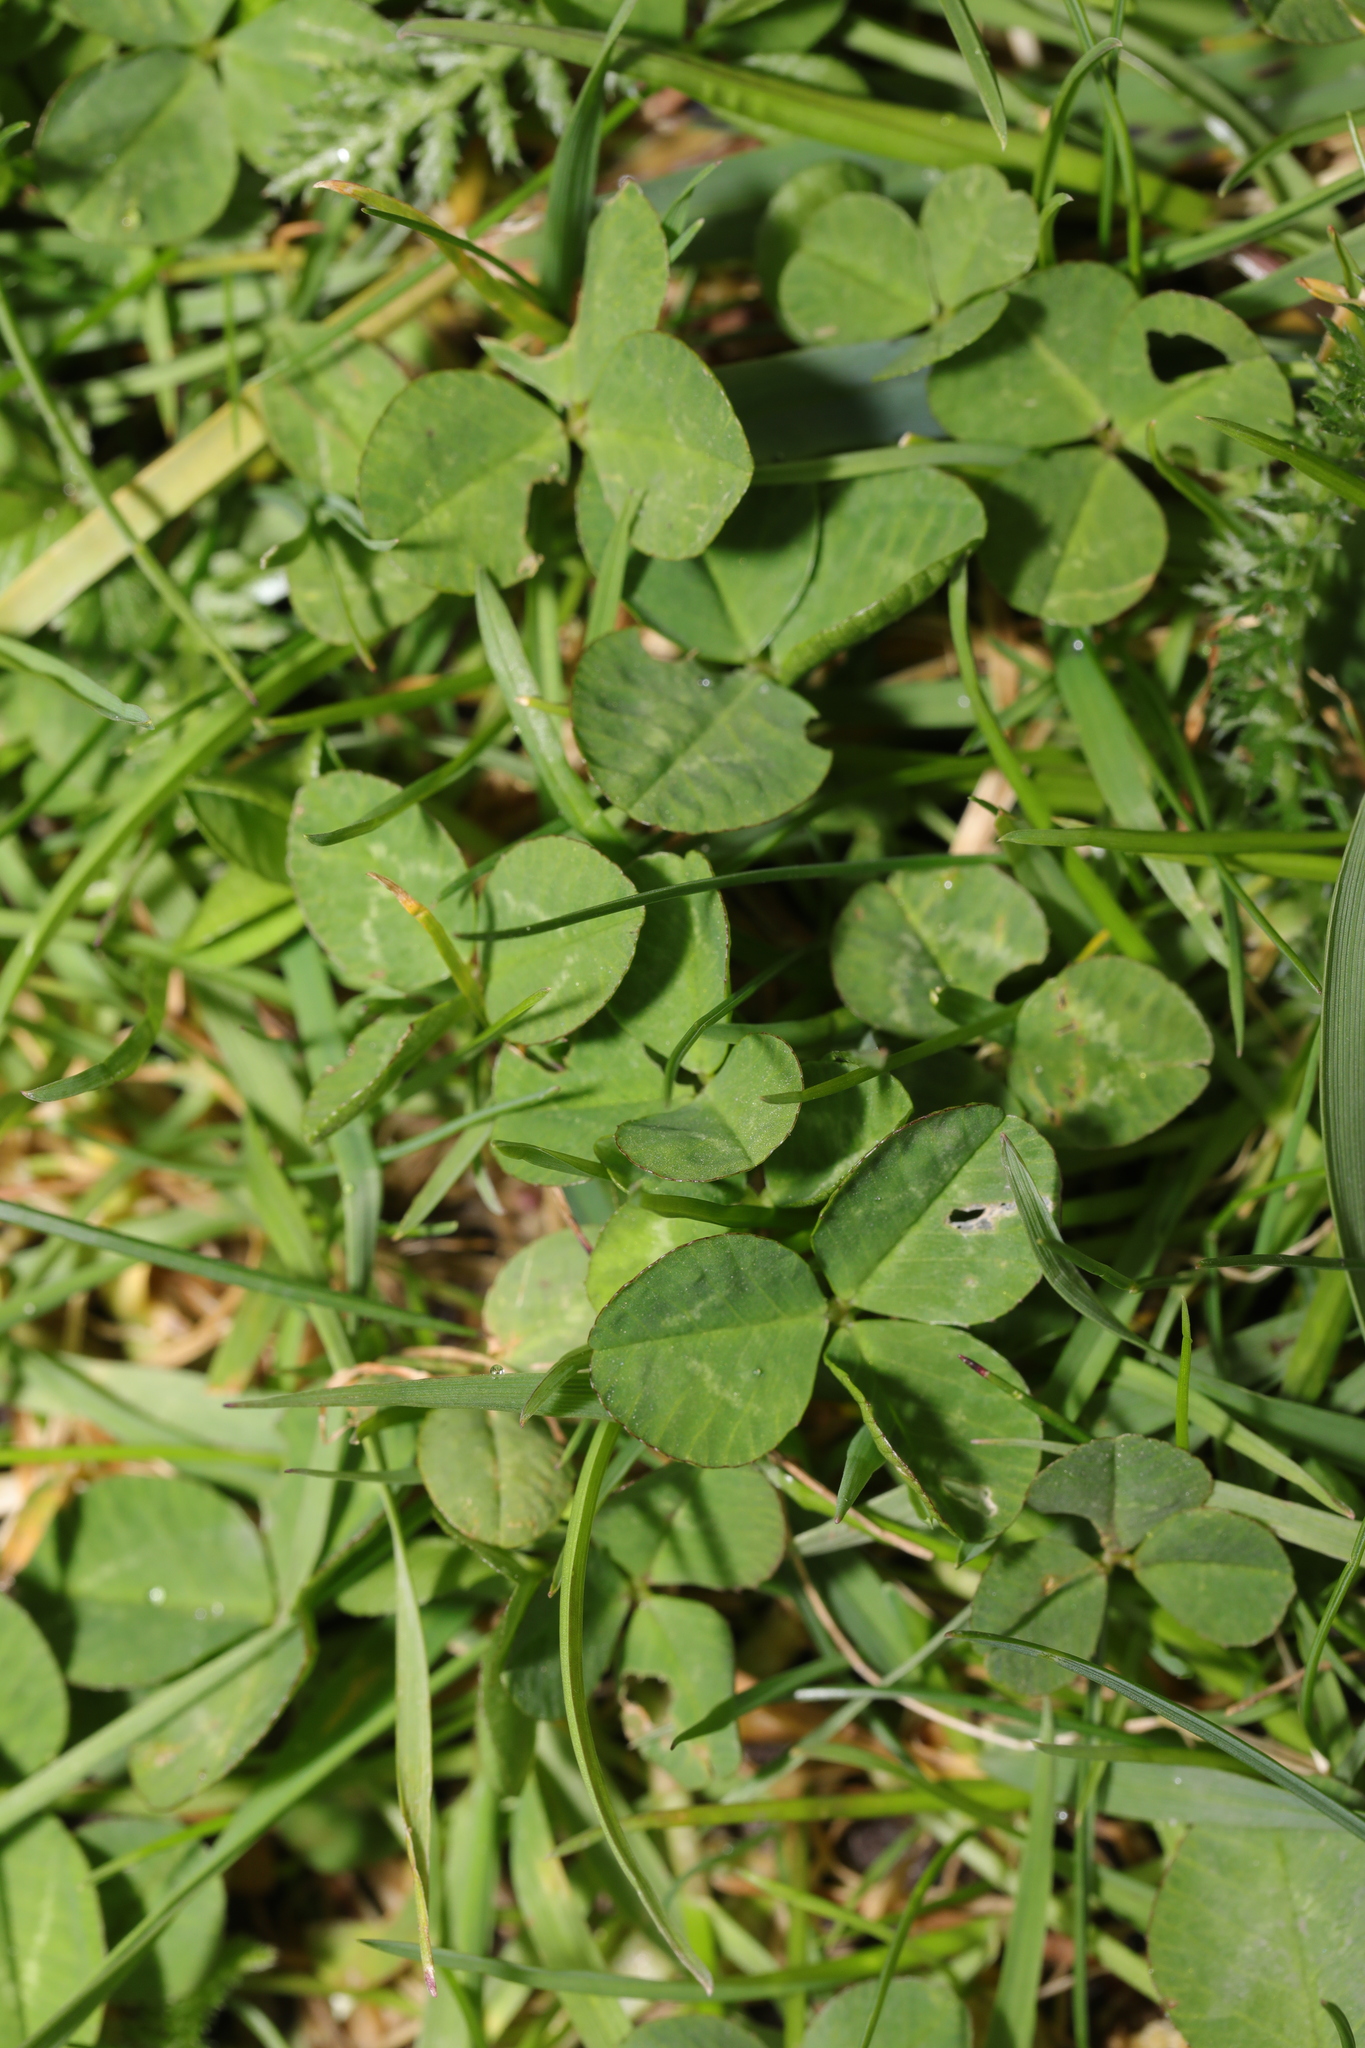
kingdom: Plantae
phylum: Tracheophyta
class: Magnoliopsida
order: Fabales
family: Fabaceae
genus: Trifolium
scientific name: Trifolium repens
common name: White clover
